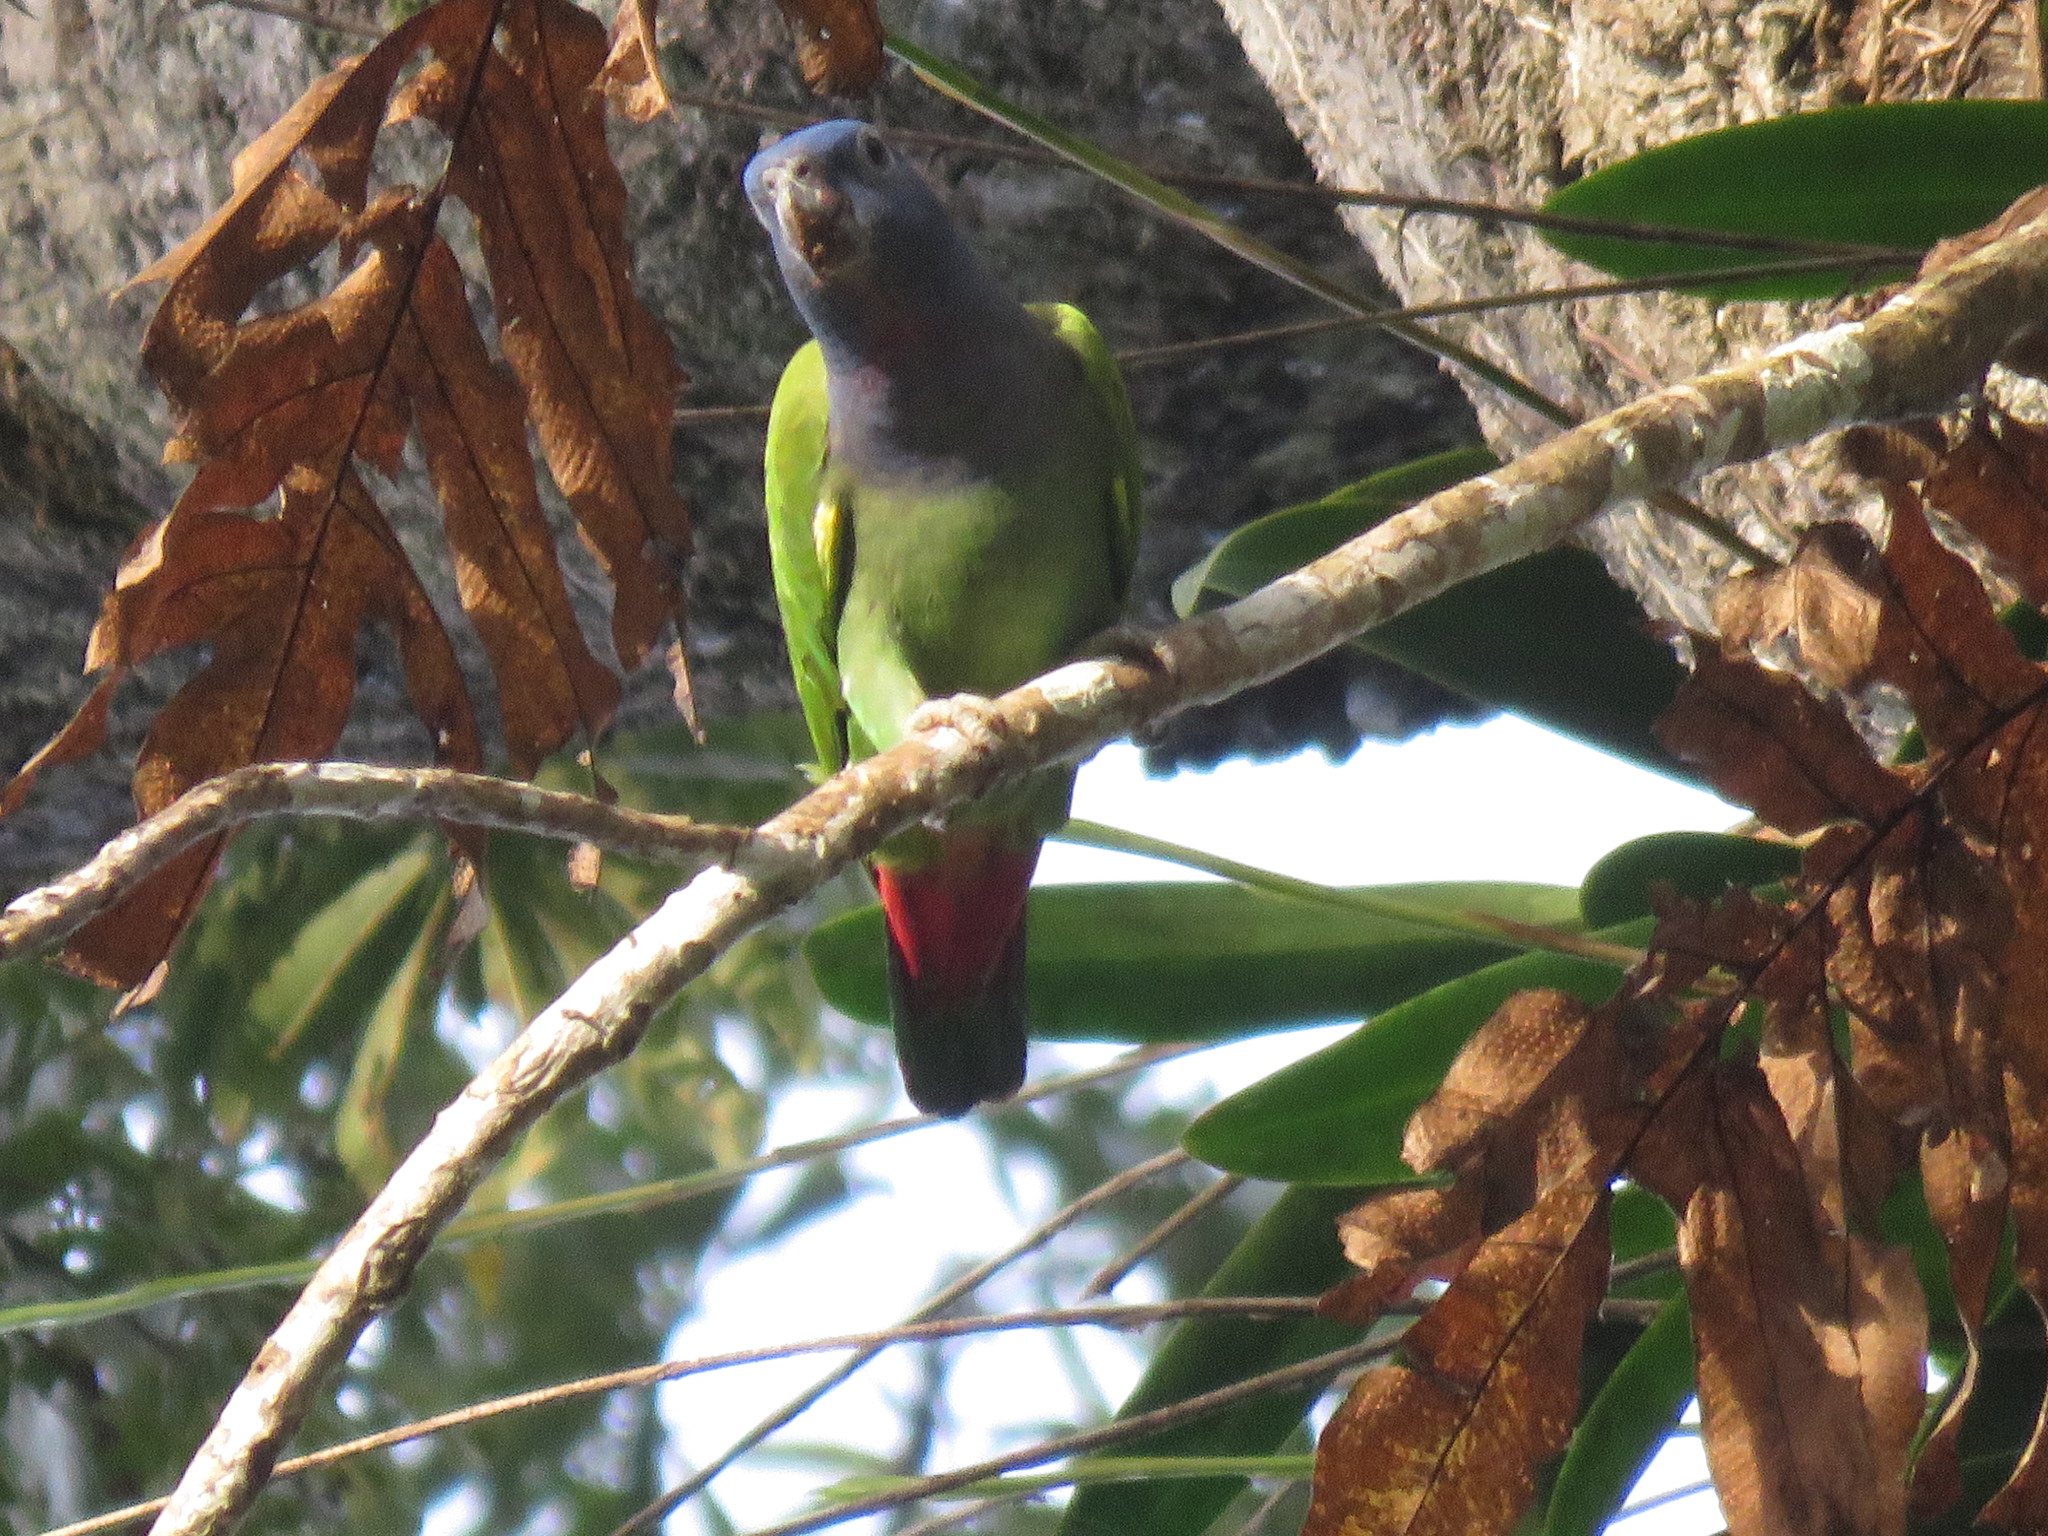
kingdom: Animalia
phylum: Chordata
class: Aves
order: Psittaciformes
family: Psittacidae
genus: Pionus
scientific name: Pionus menstruus
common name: Blue-headed parrot
